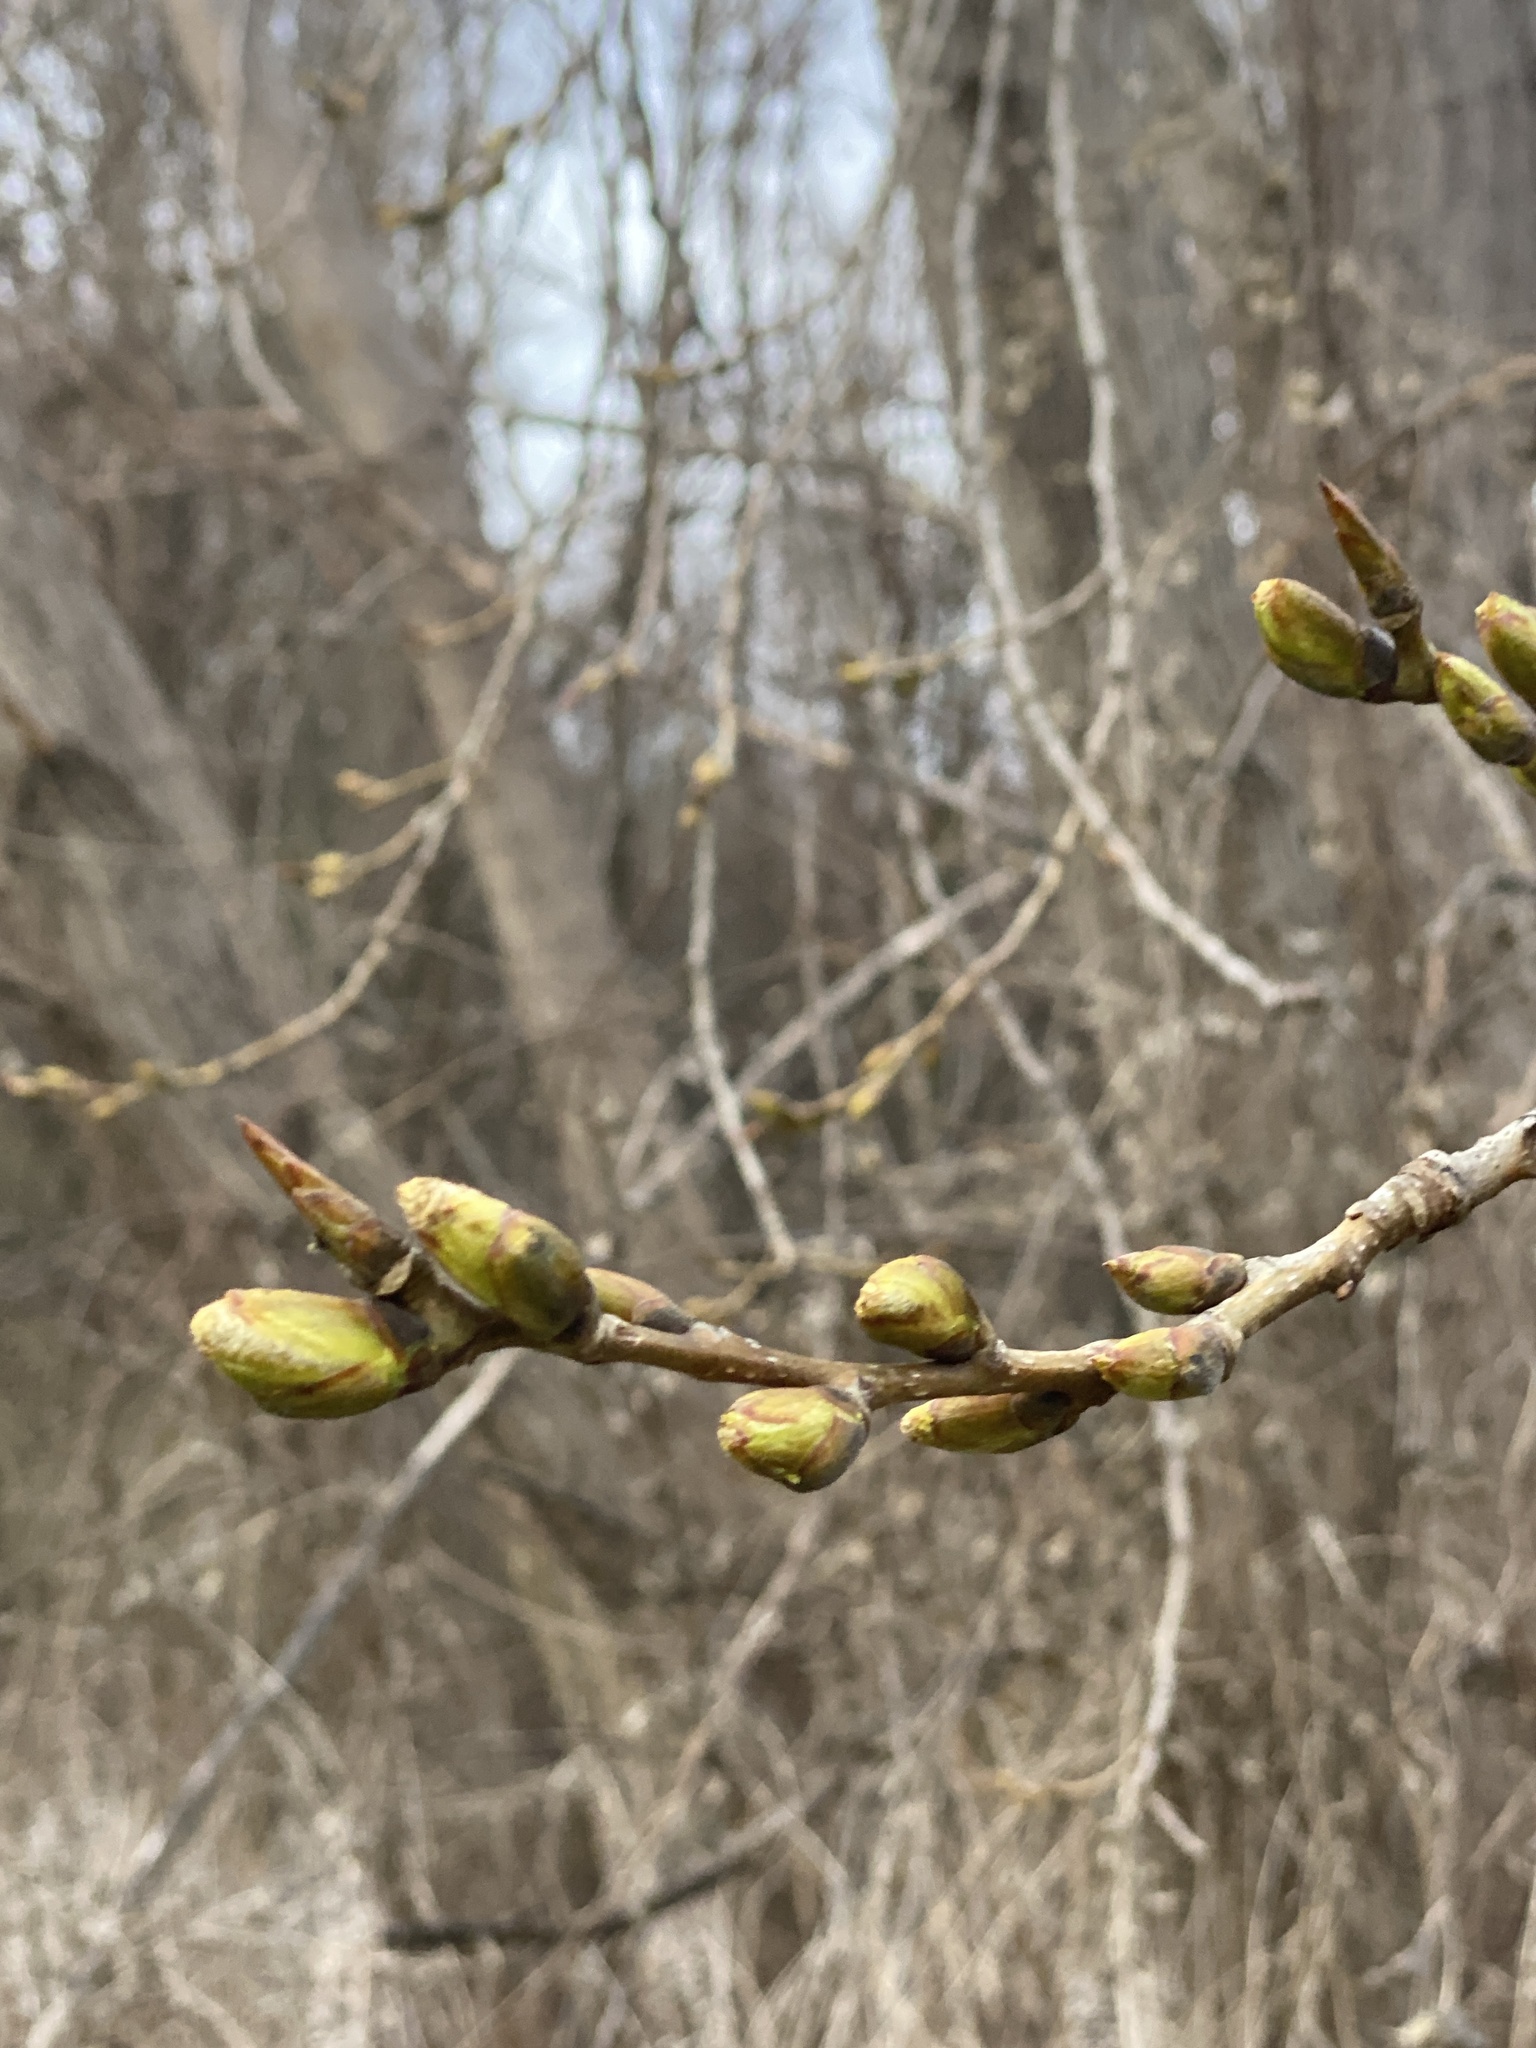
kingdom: Plantae
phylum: Tracheophyta
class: Magnoliopsida
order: Malpighiales
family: Salicaceae
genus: Populus
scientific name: Populus deltoides
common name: Eastern cottonwood
